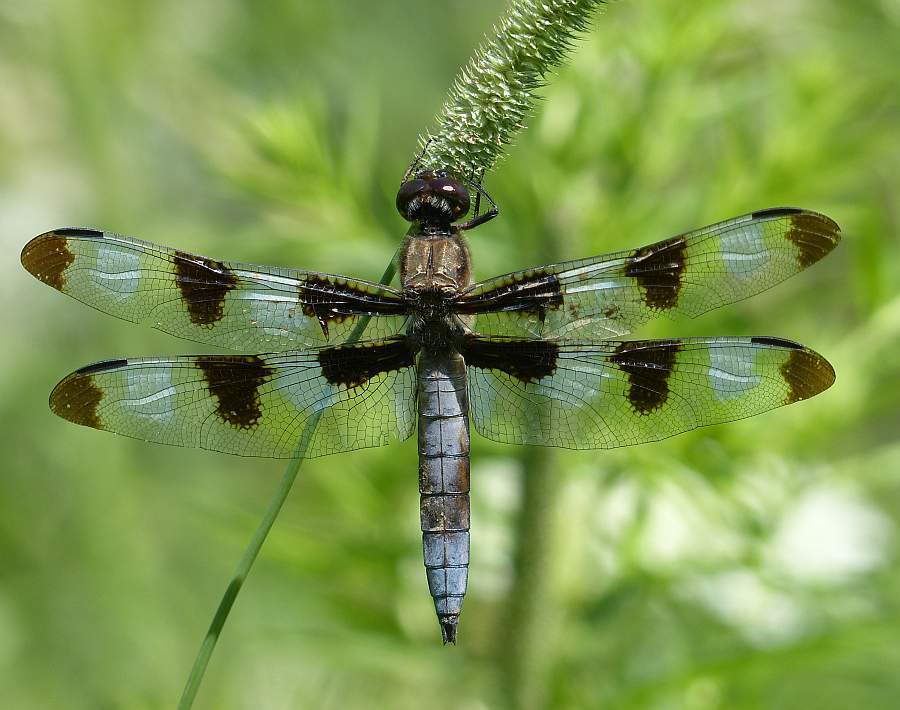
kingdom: Animalia
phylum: Arthropoda
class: Insecta
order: Odonata
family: Libellulidae
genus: Libellula
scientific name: Libellula pulchella
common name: Twelve-spotted skimmer
